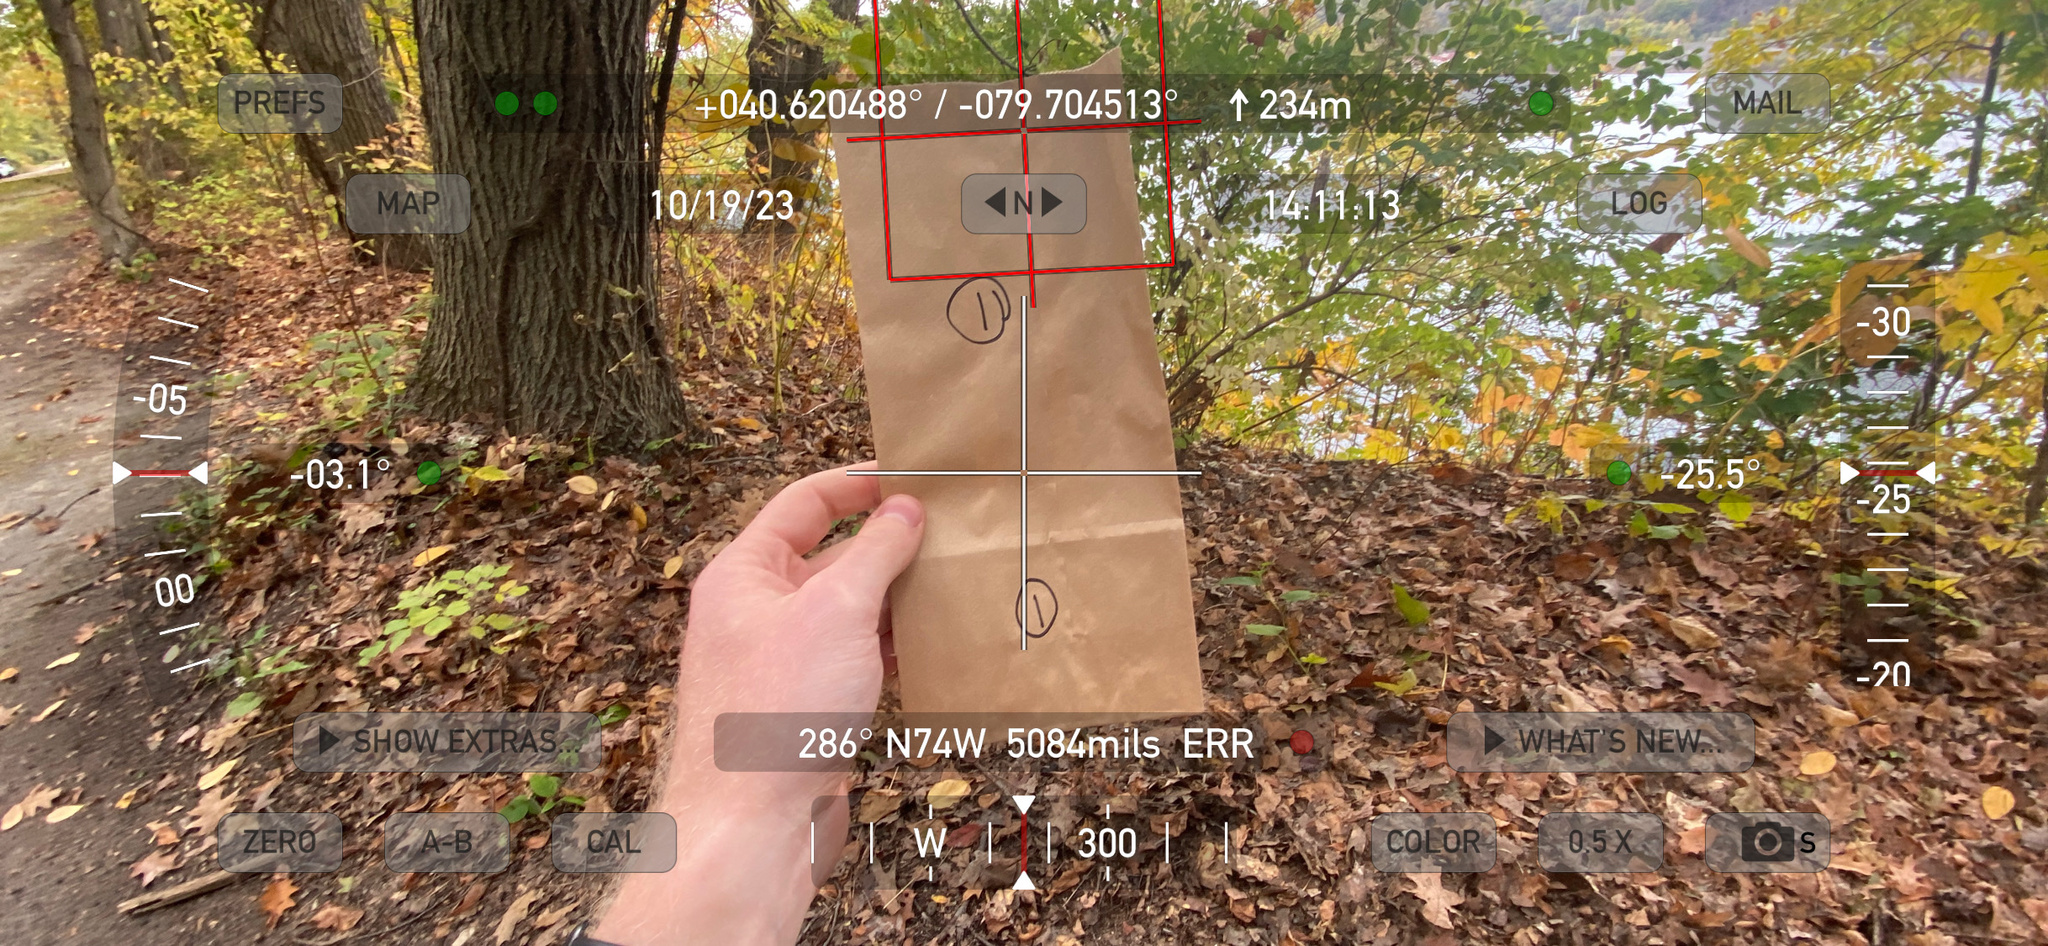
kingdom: Plantae
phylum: Tracheophyta
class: Magnoliopsida
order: Sapindales
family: Anacardiaceae
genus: Toxicodendron
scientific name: Toxicodendron radicans
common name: Poison ivy
